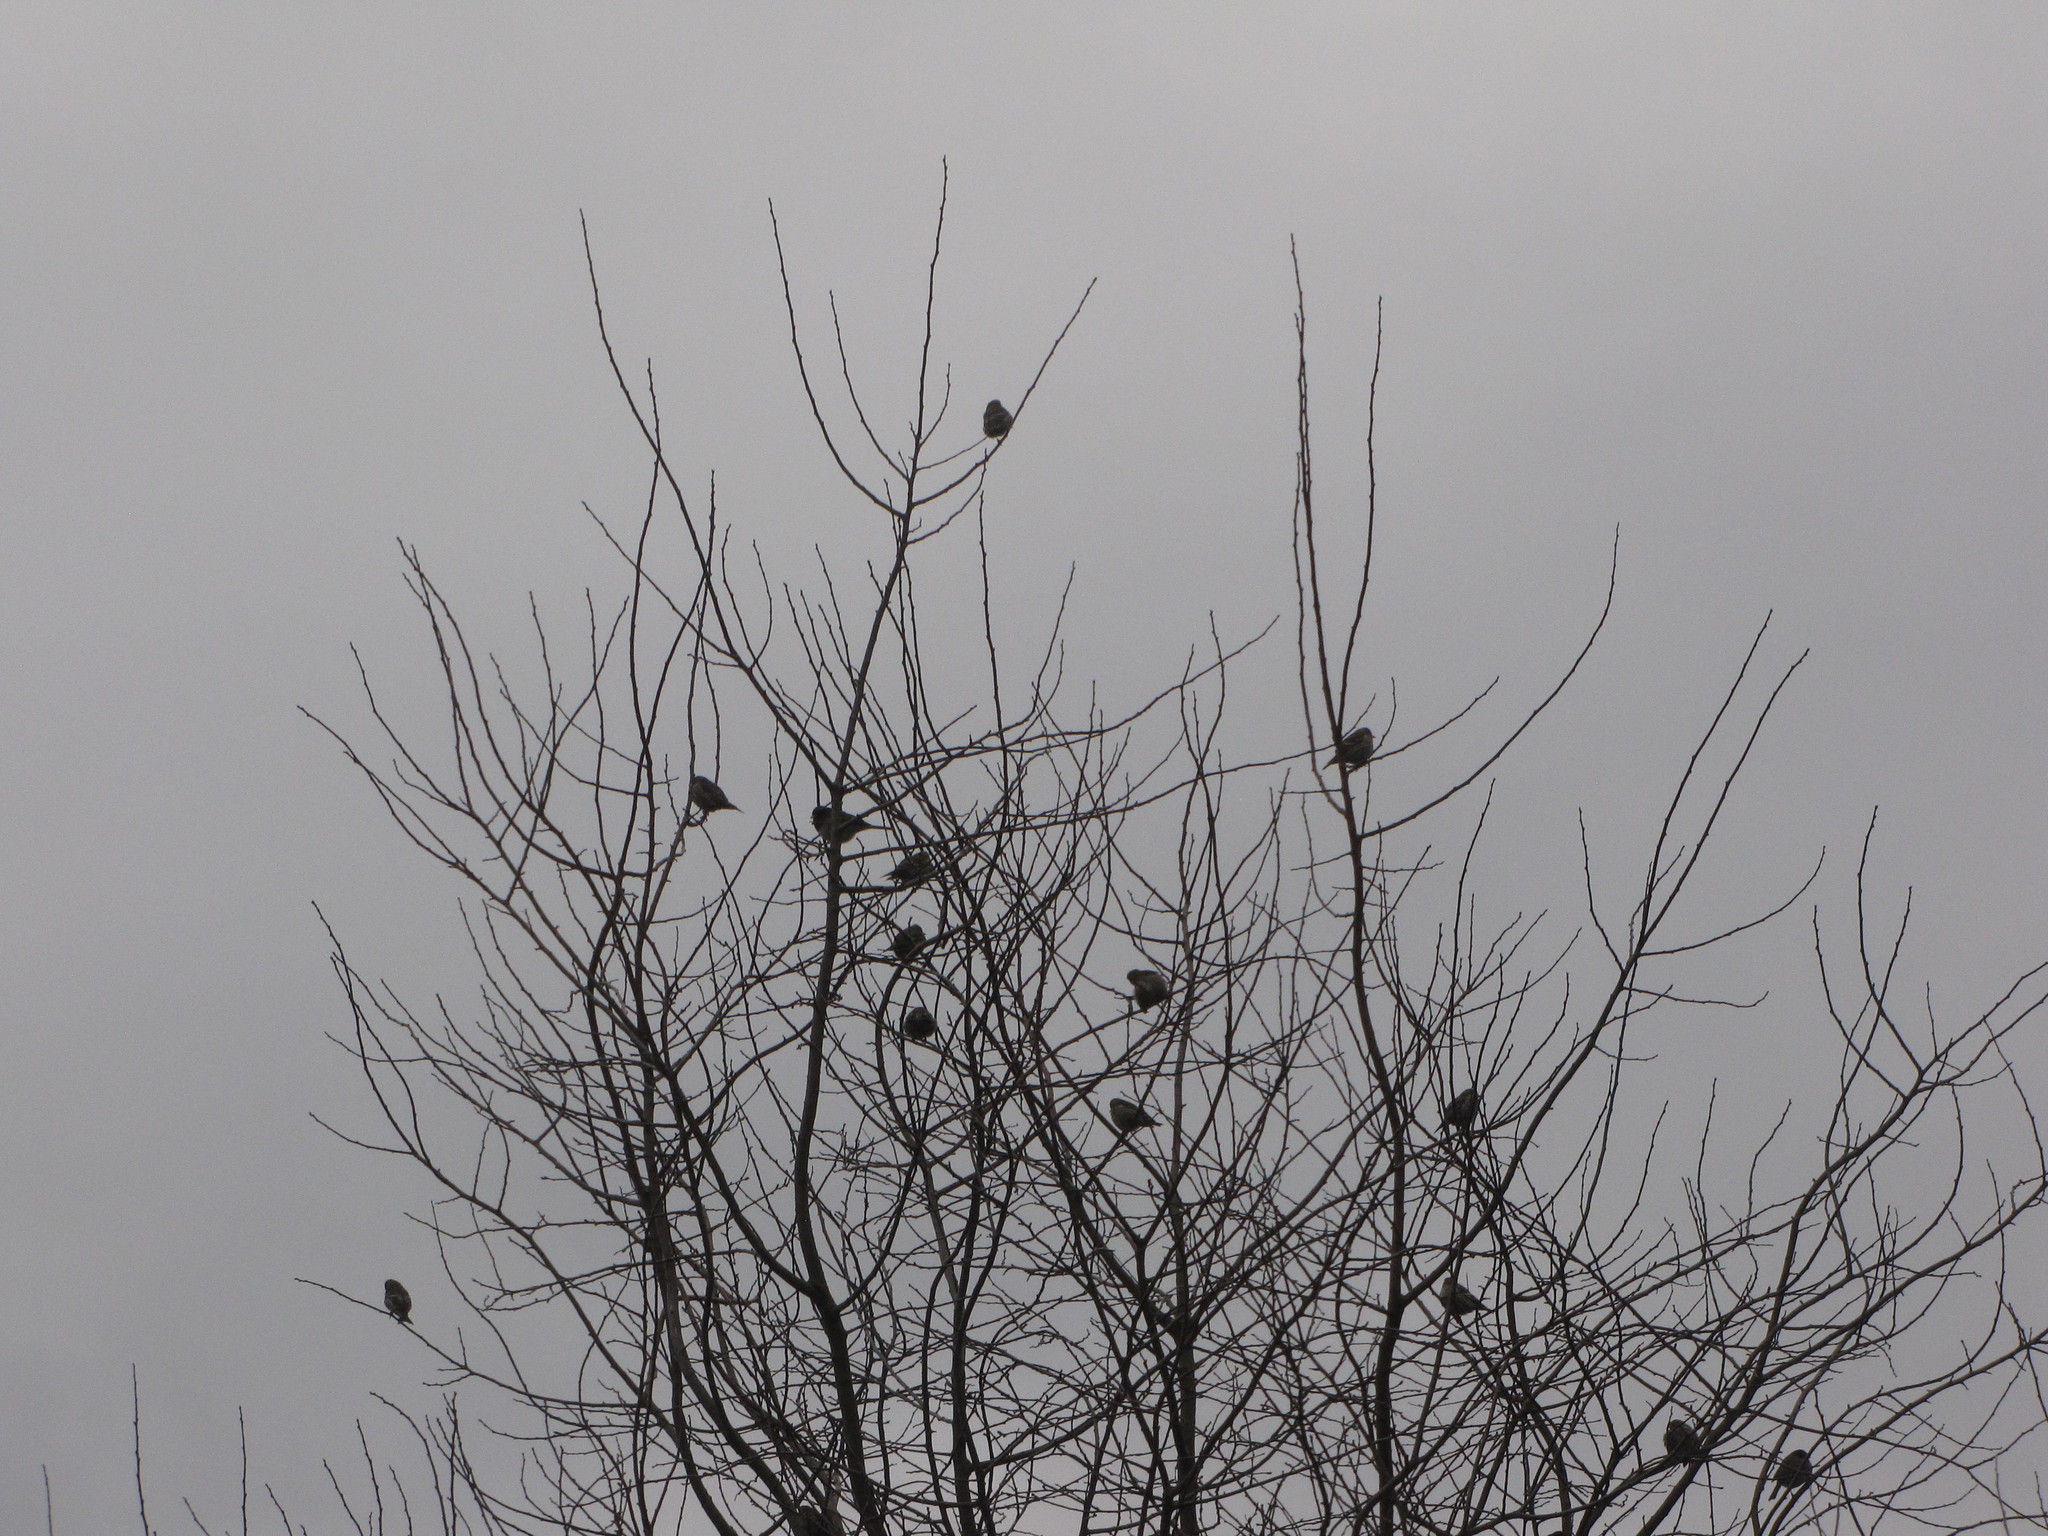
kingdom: Animalia
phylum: Chordata
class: Aves
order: Passeriformes
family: Fringillidae
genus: Spinus
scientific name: Spinus pinus
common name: Pine siskin
